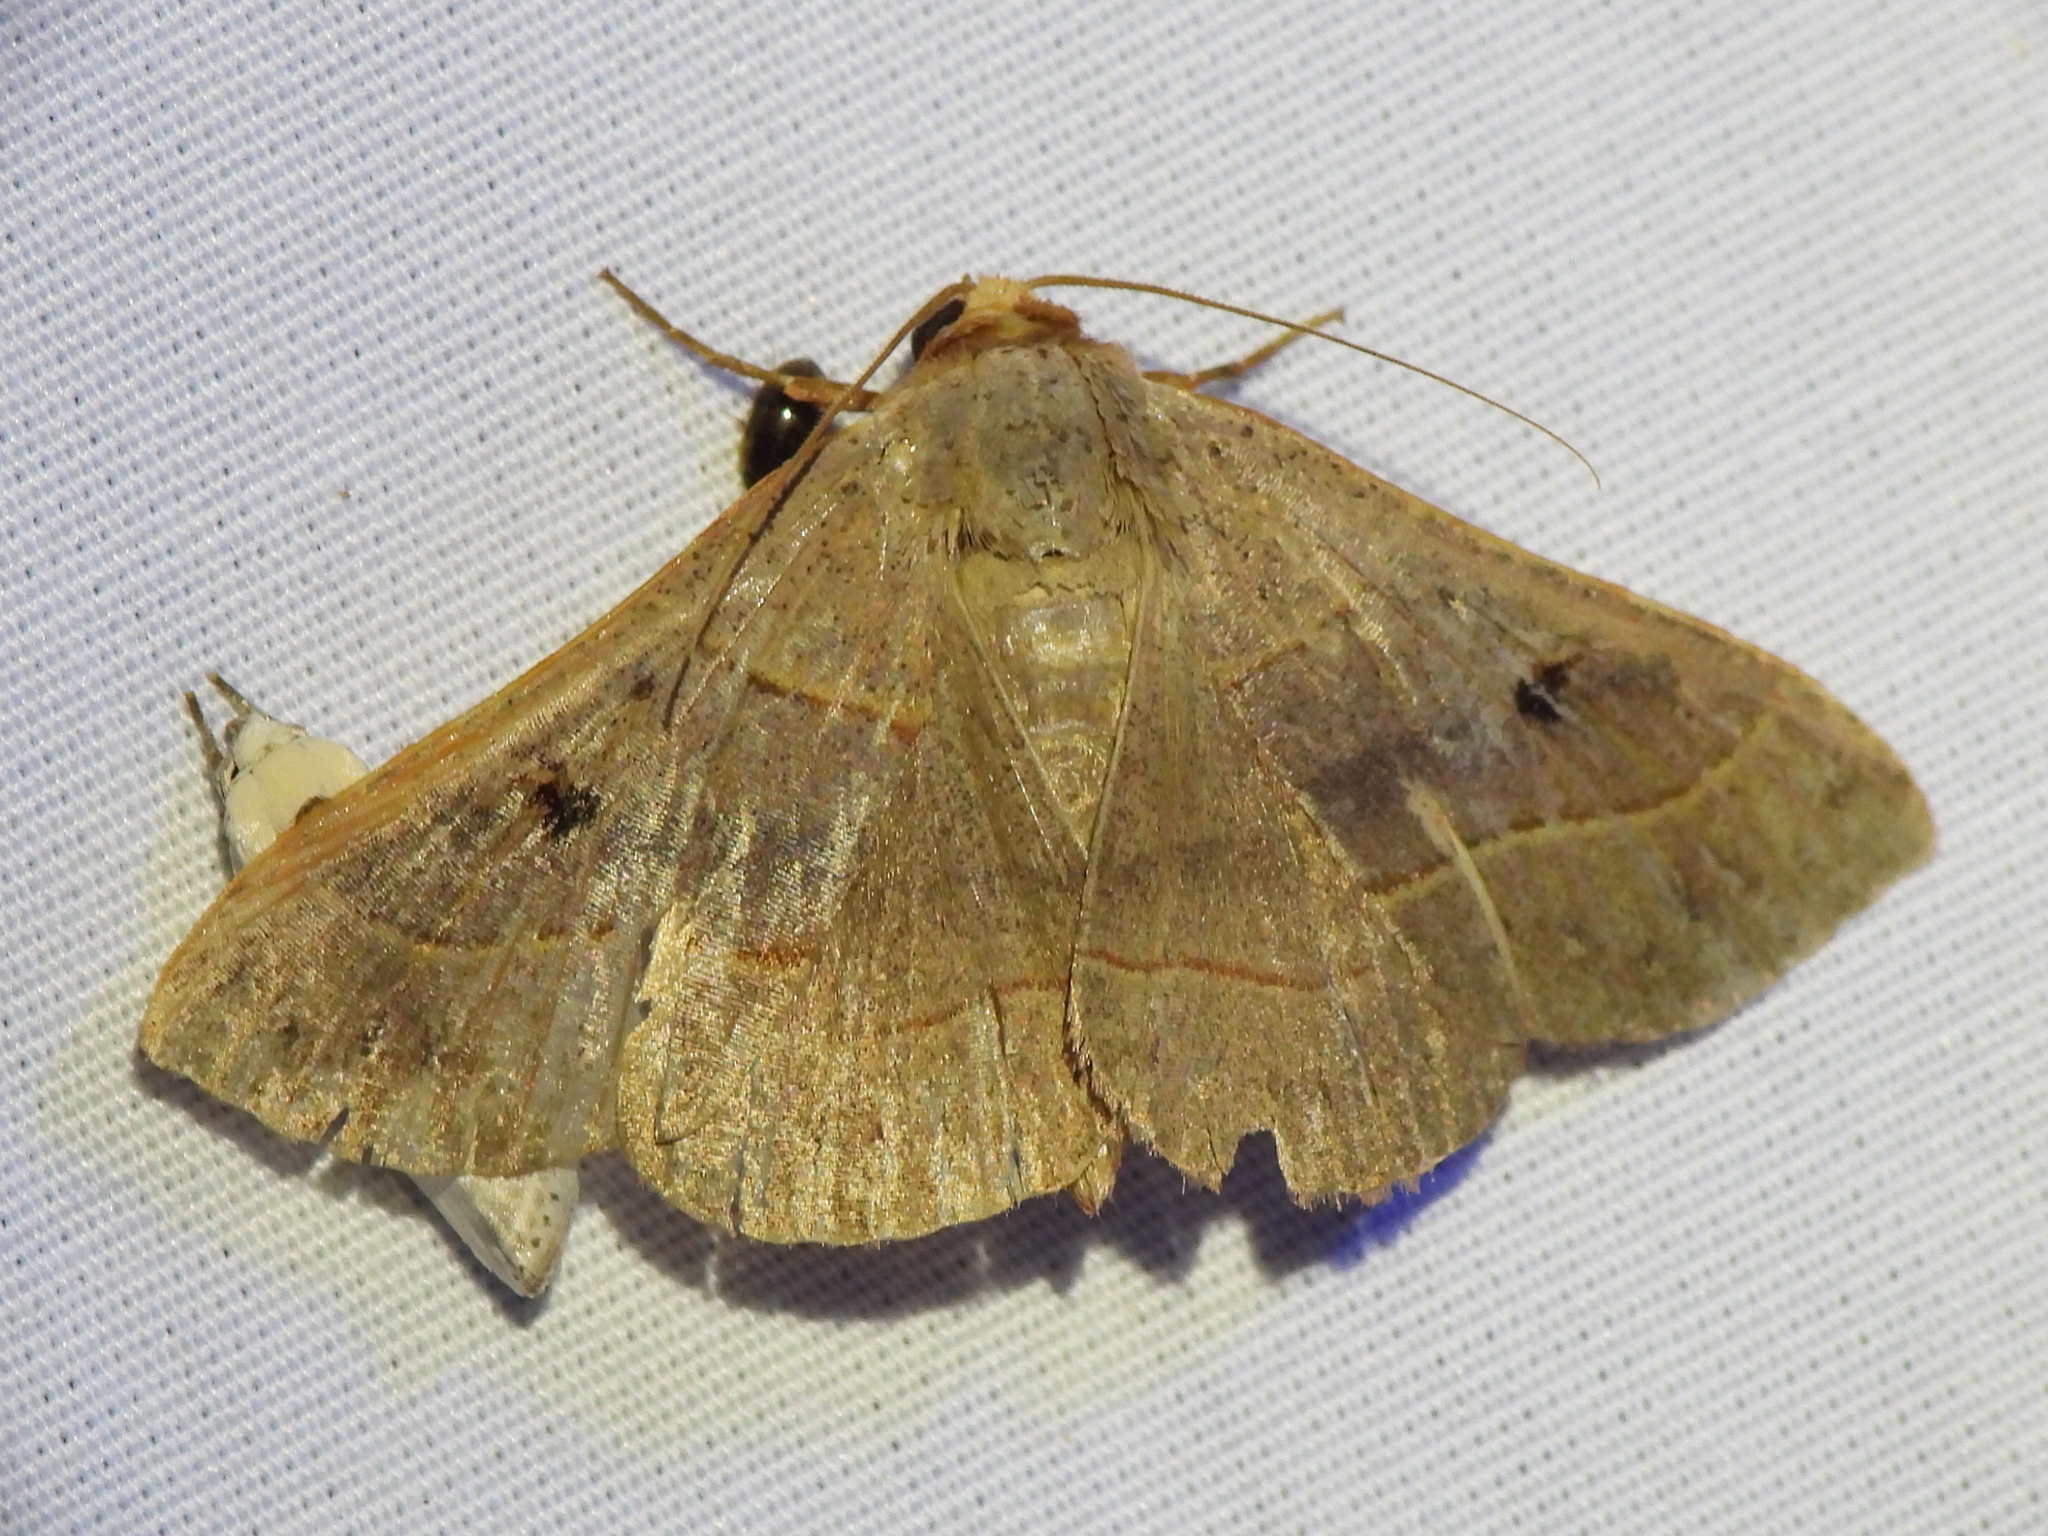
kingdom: Animalia
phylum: Arthropoda
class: Insecta
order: Lepidoptera
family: Erebidae
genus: Panopoda
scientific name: Panopoda rufimargo
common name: Red-lined panopoda moth
